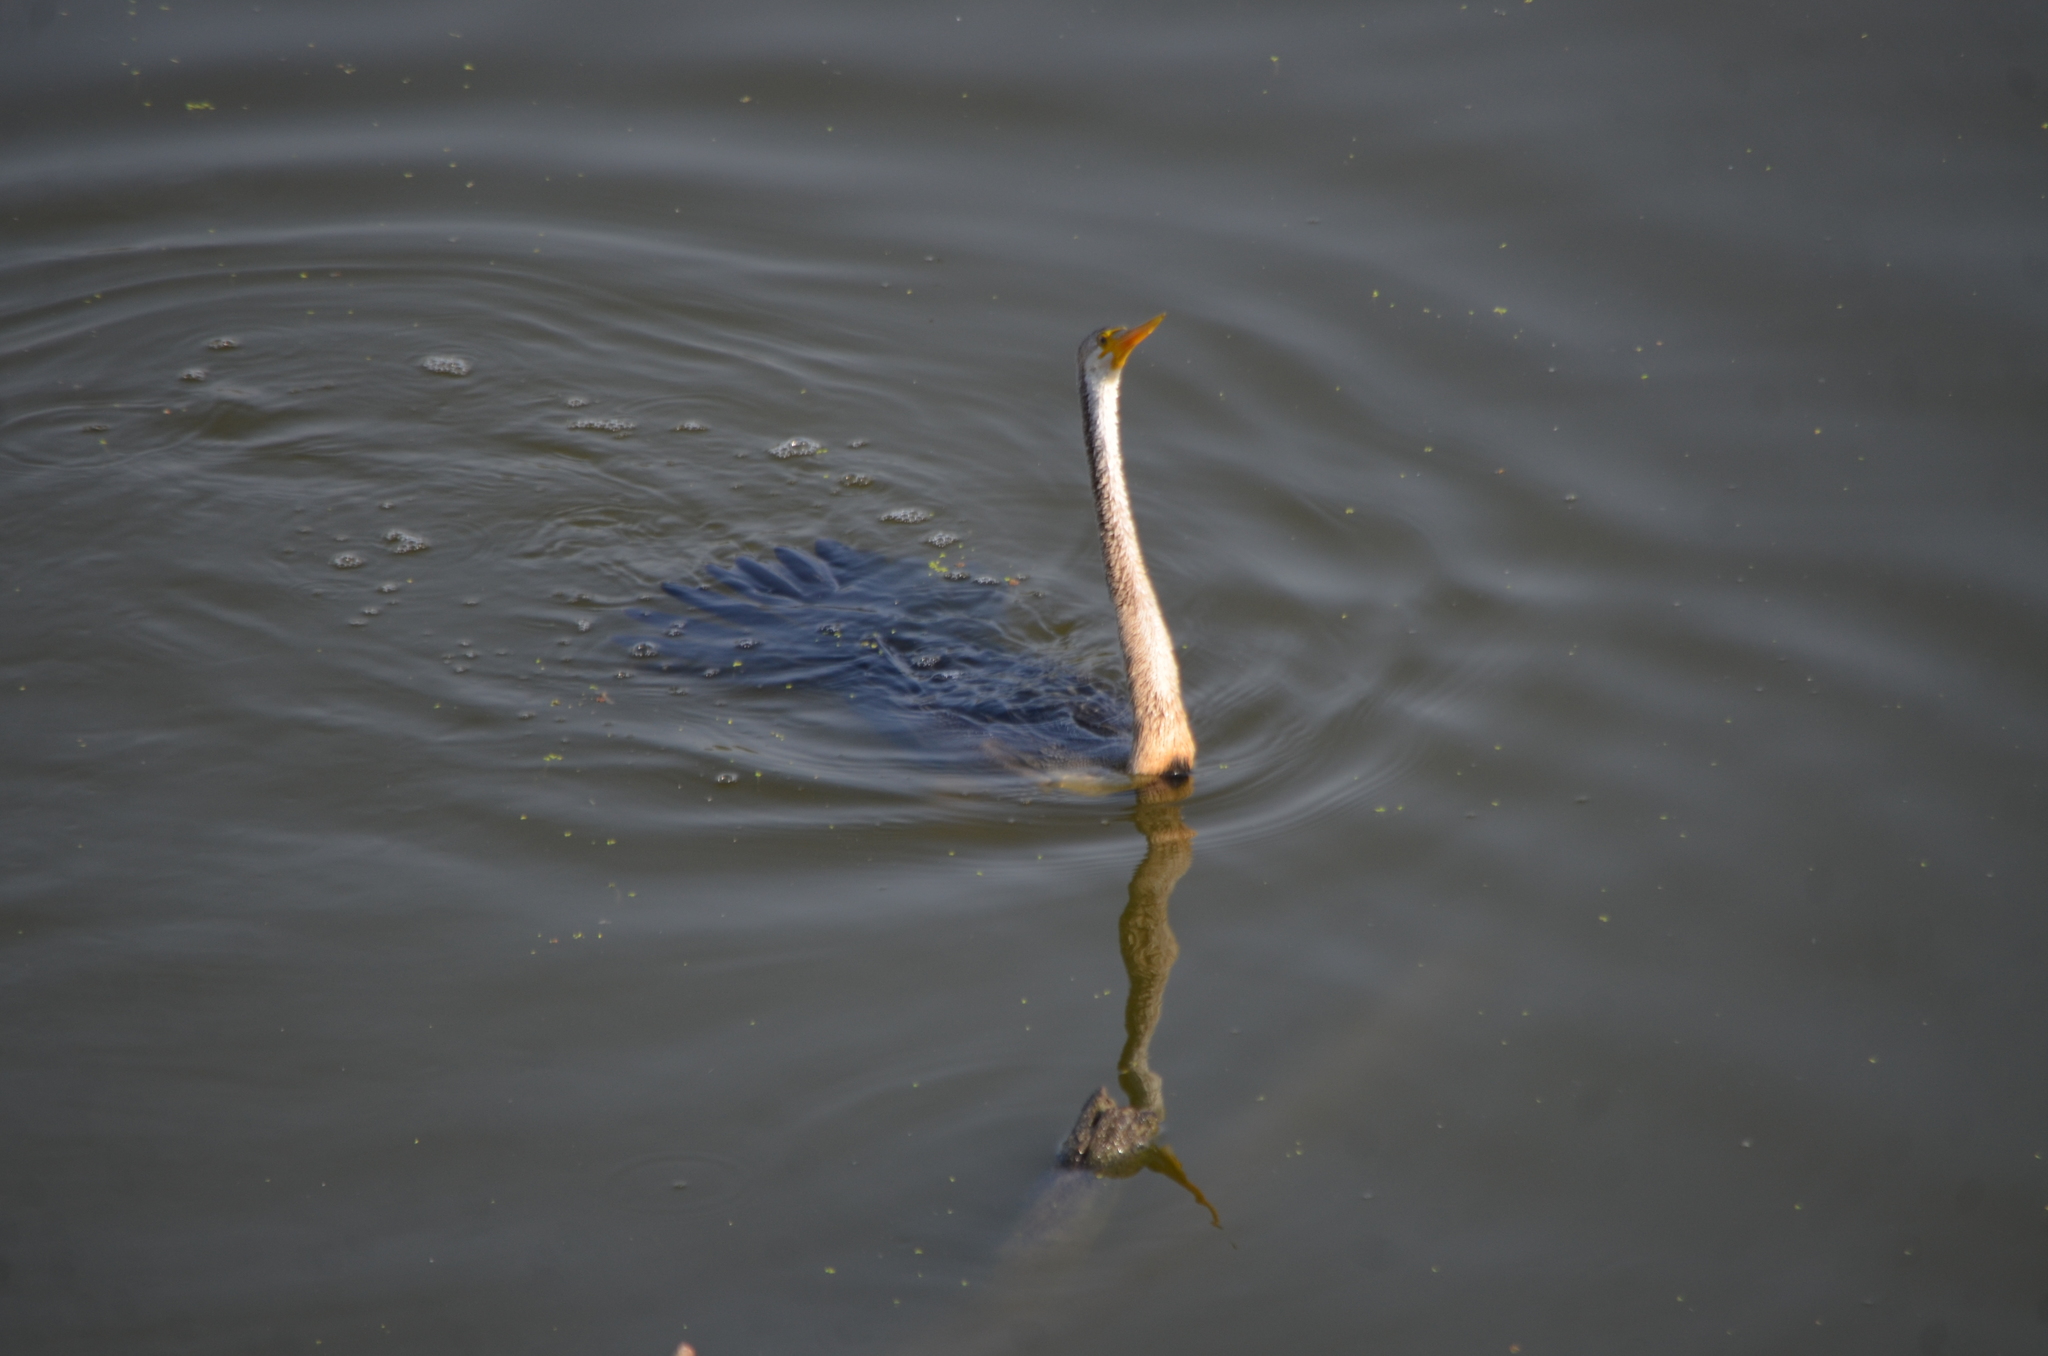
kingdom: Animalia
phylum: Chordata
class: Aves
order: Suliformes
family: Anhingidae
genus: Anhinga
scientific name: Anhinga melanogaster
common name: Oriental darter
